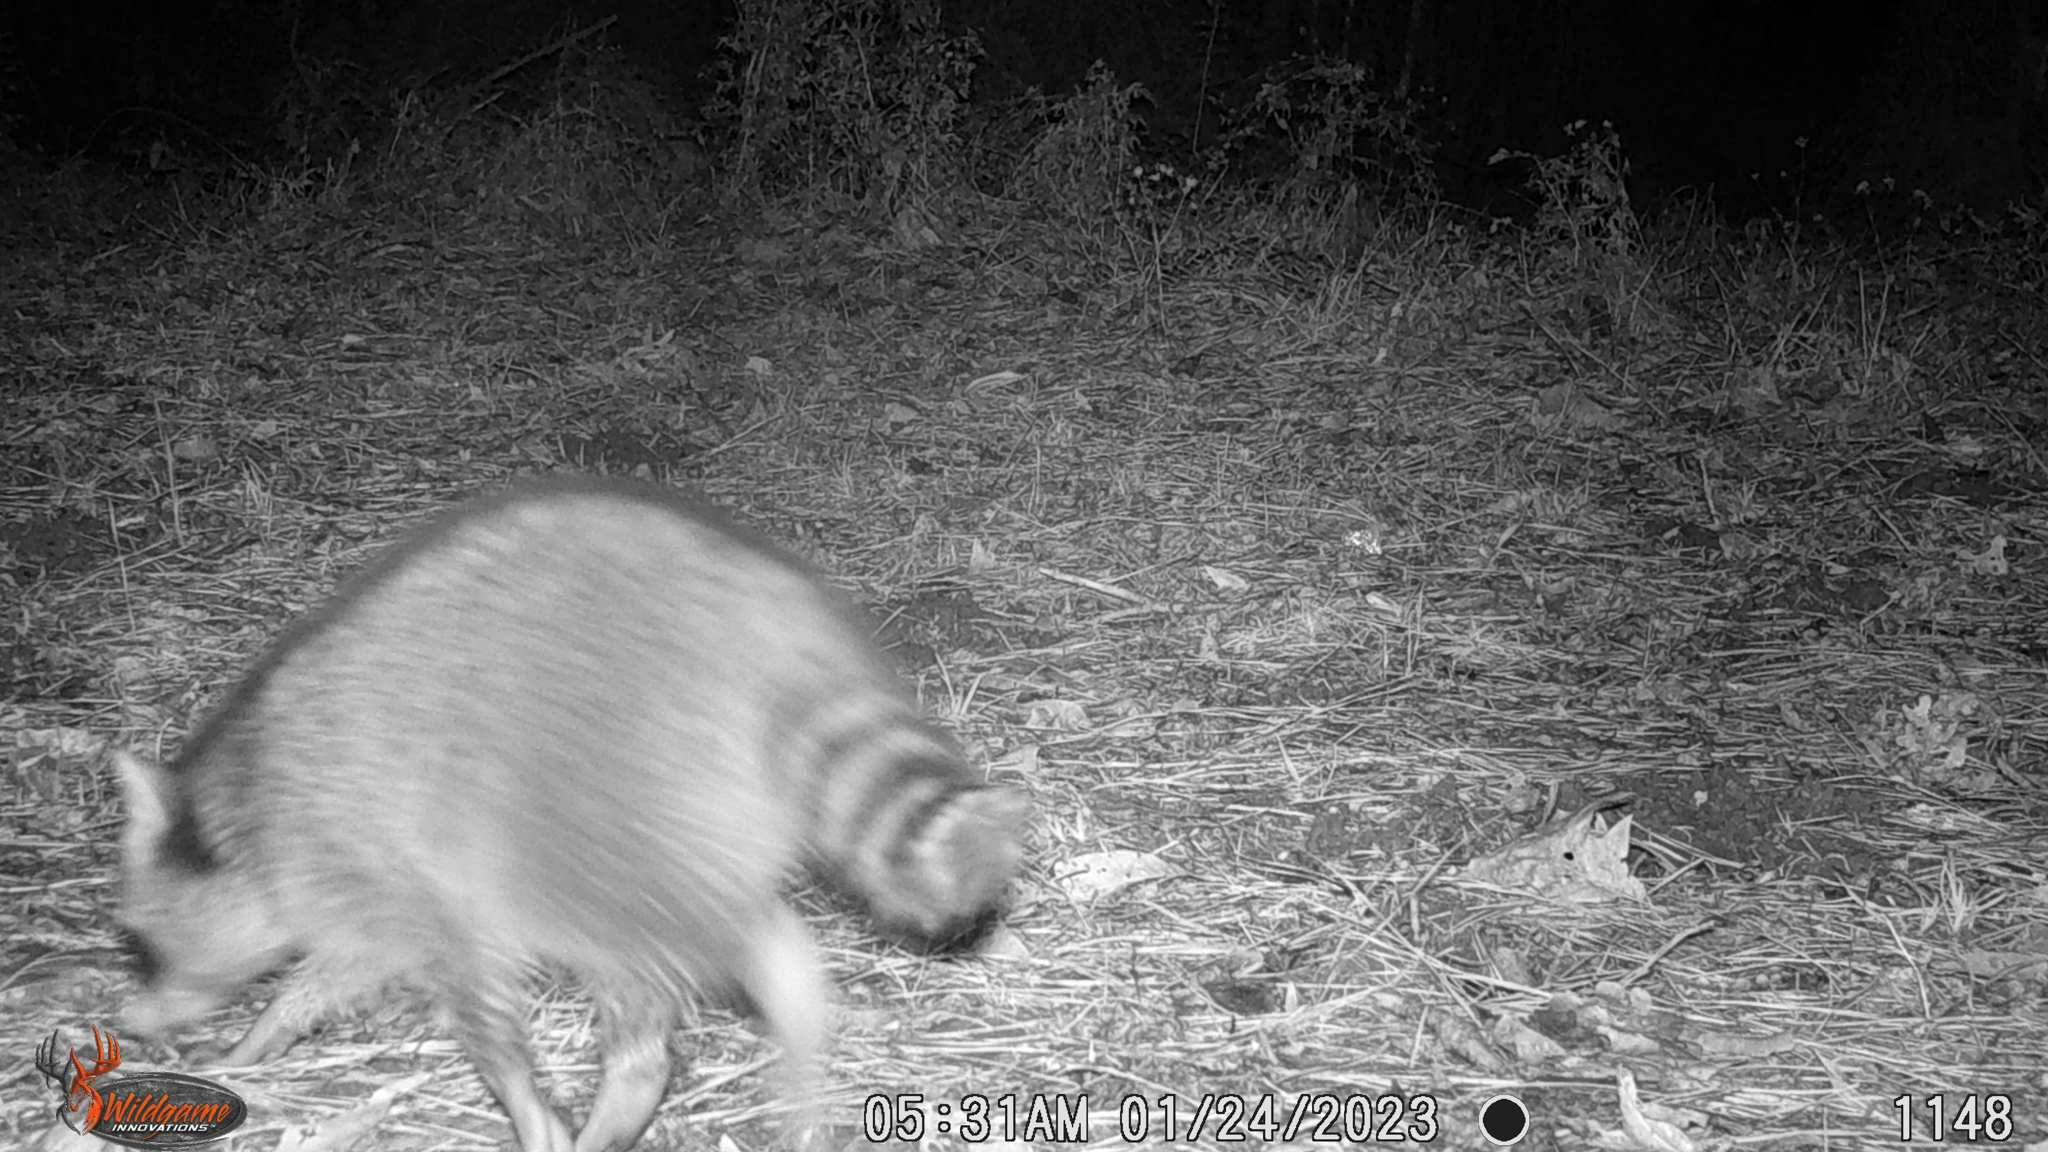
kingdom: Animalia
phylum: Chordata
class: Mammalia
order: Carnivora
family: Procyonidae
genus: Procyon
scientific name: Procyon lotor
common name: Raccoon
